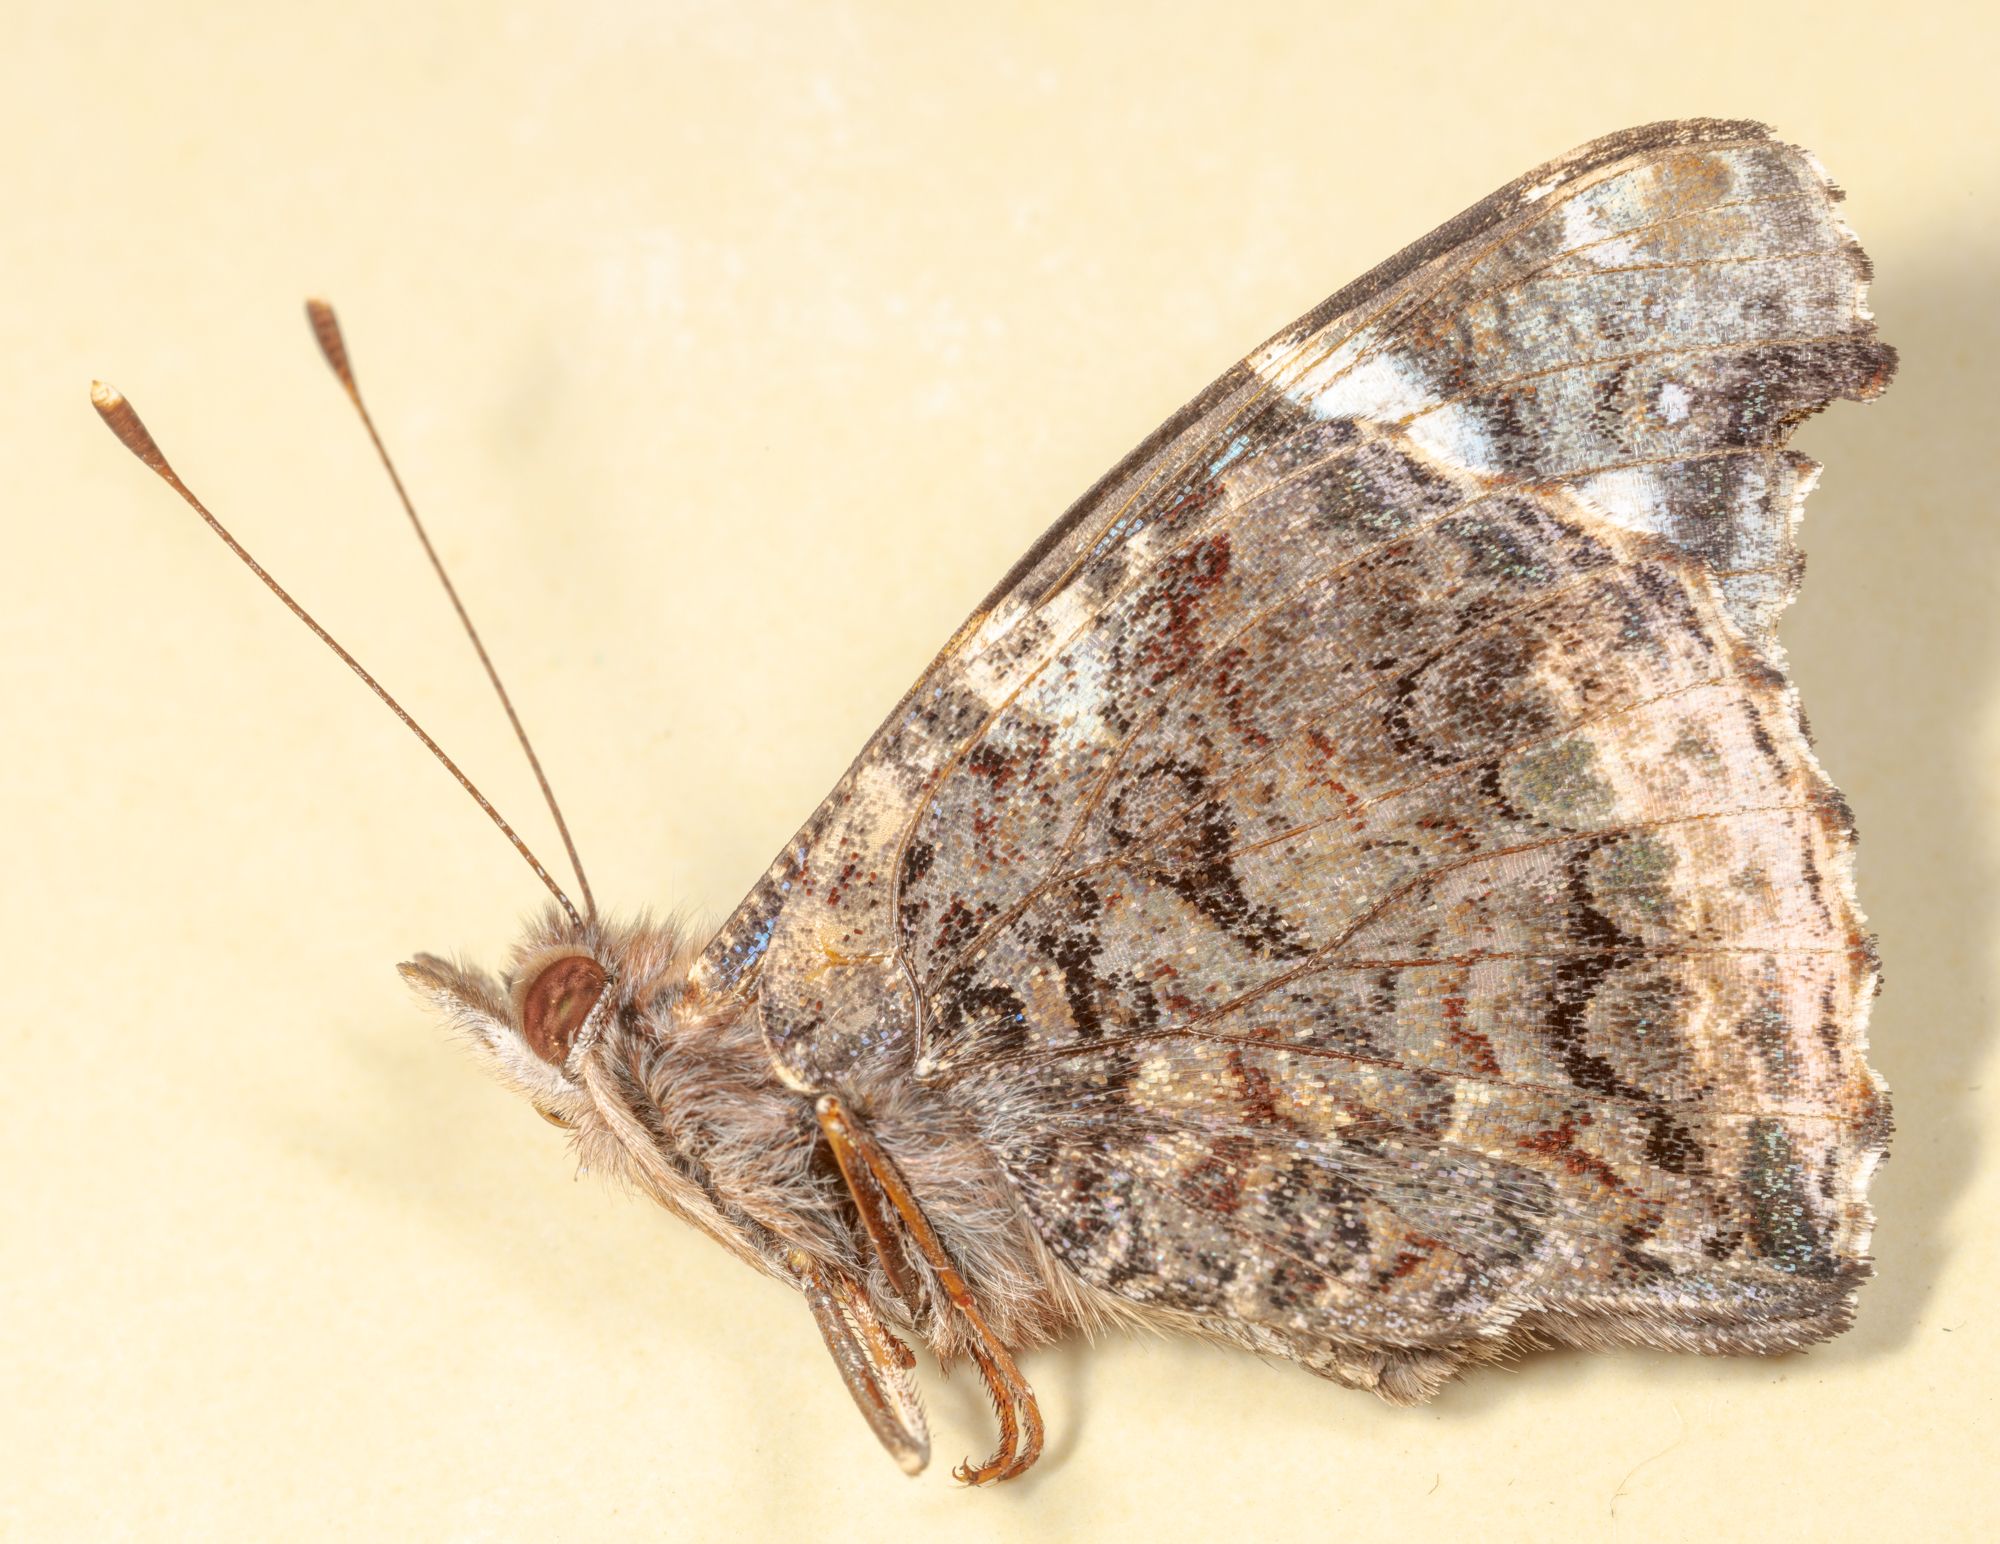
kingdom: Animalia
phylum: Arthropoda
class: Insecta
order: Lepidoptera
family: Nymphalidae
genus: Vanessa
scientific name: Vanessa atalanta
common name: Red admiral
